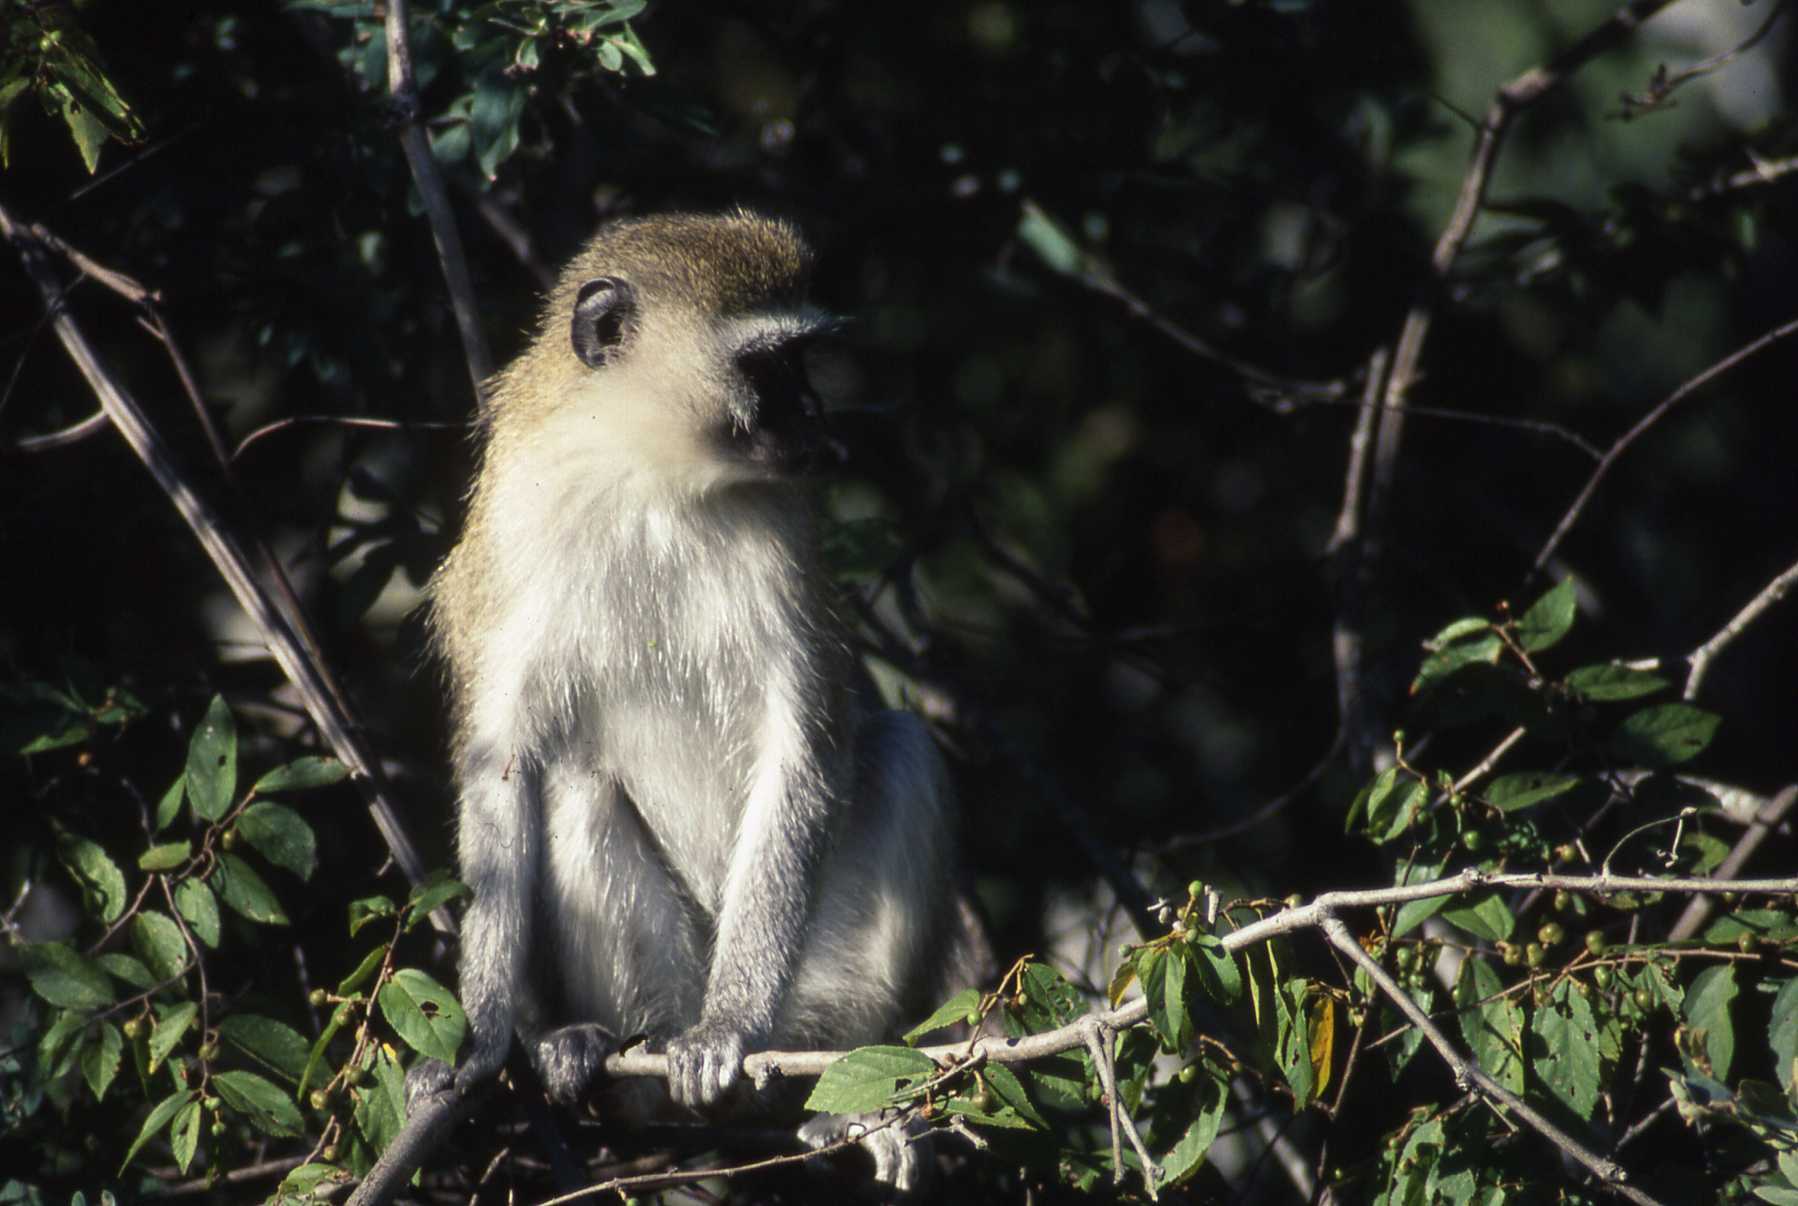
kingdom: Animalia
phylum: Chordata
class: Mammalia
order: Primates
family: Cercopithecidae
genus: Chlorocebus
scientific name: Chlorocebus pygerythrus
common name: Vervet monkey
